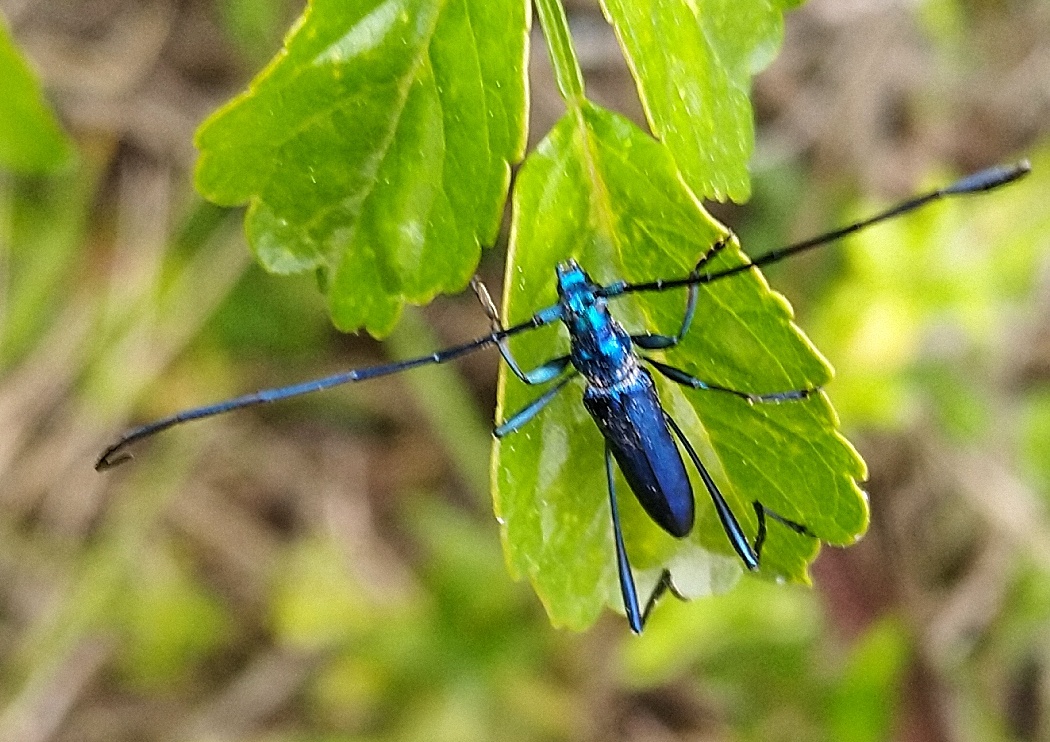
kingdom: Animalia
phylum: Arthropoda
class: Insecta
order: Coleoptera
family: Cerambycidae
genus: Promeces
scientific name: Promeces longipes
